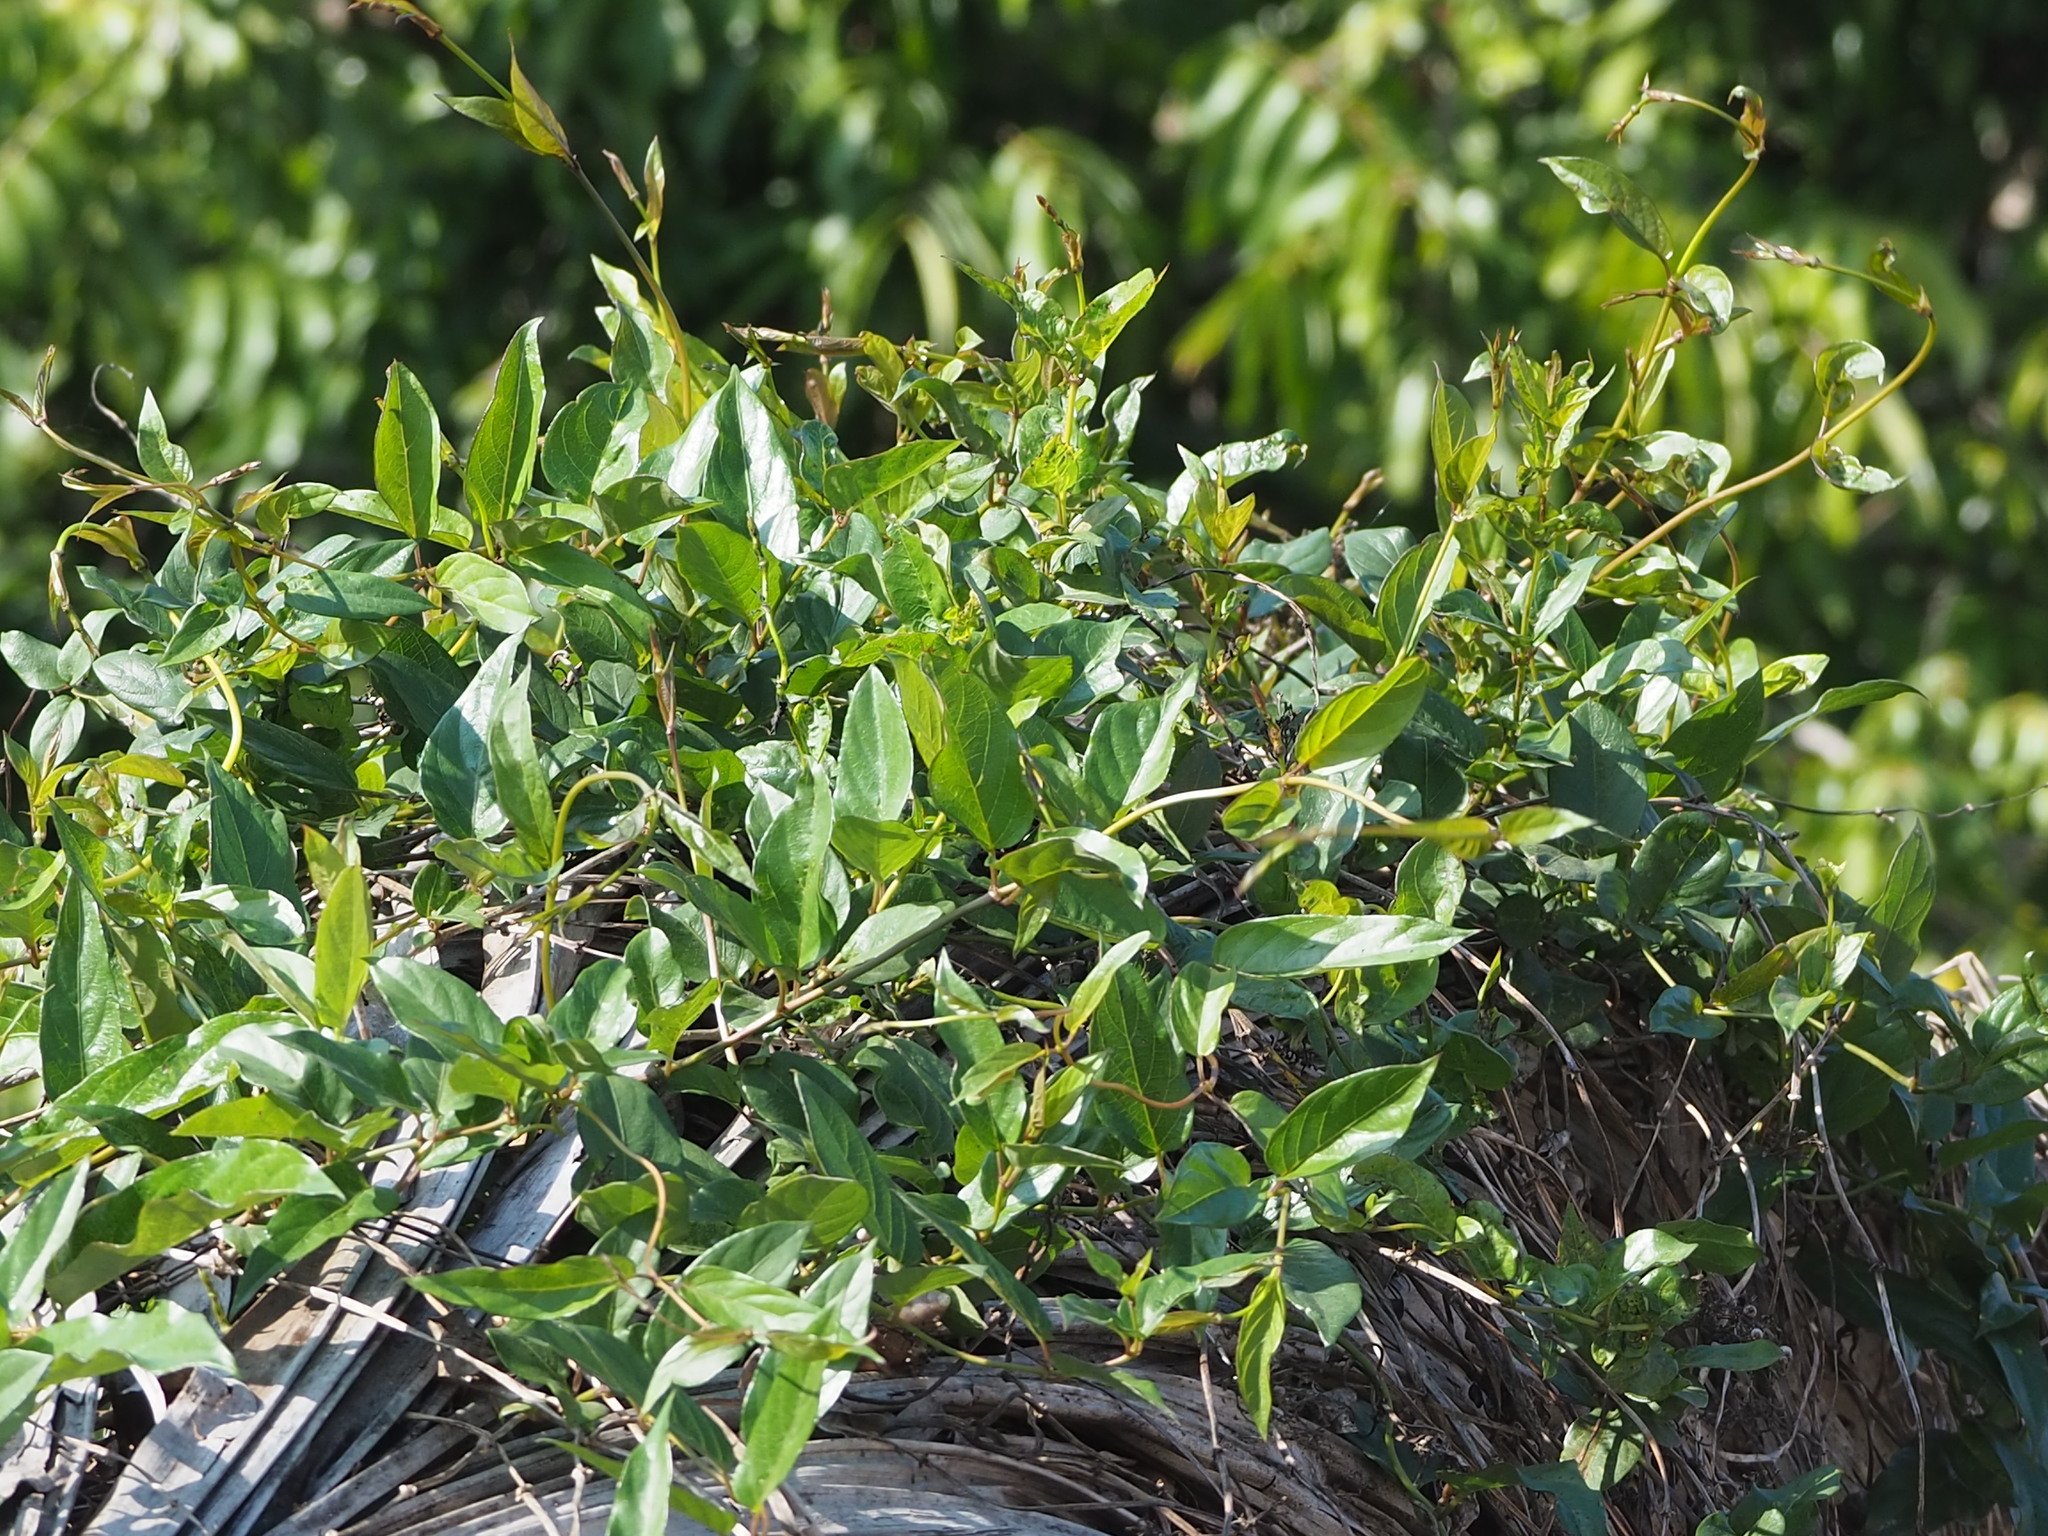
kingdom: Plantae
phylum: Tracheophyta
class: Magnoliopsida
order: Gentianales
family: Rubiaceae
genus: Paederia
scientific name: Paederia foetida
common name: Stinkvine
